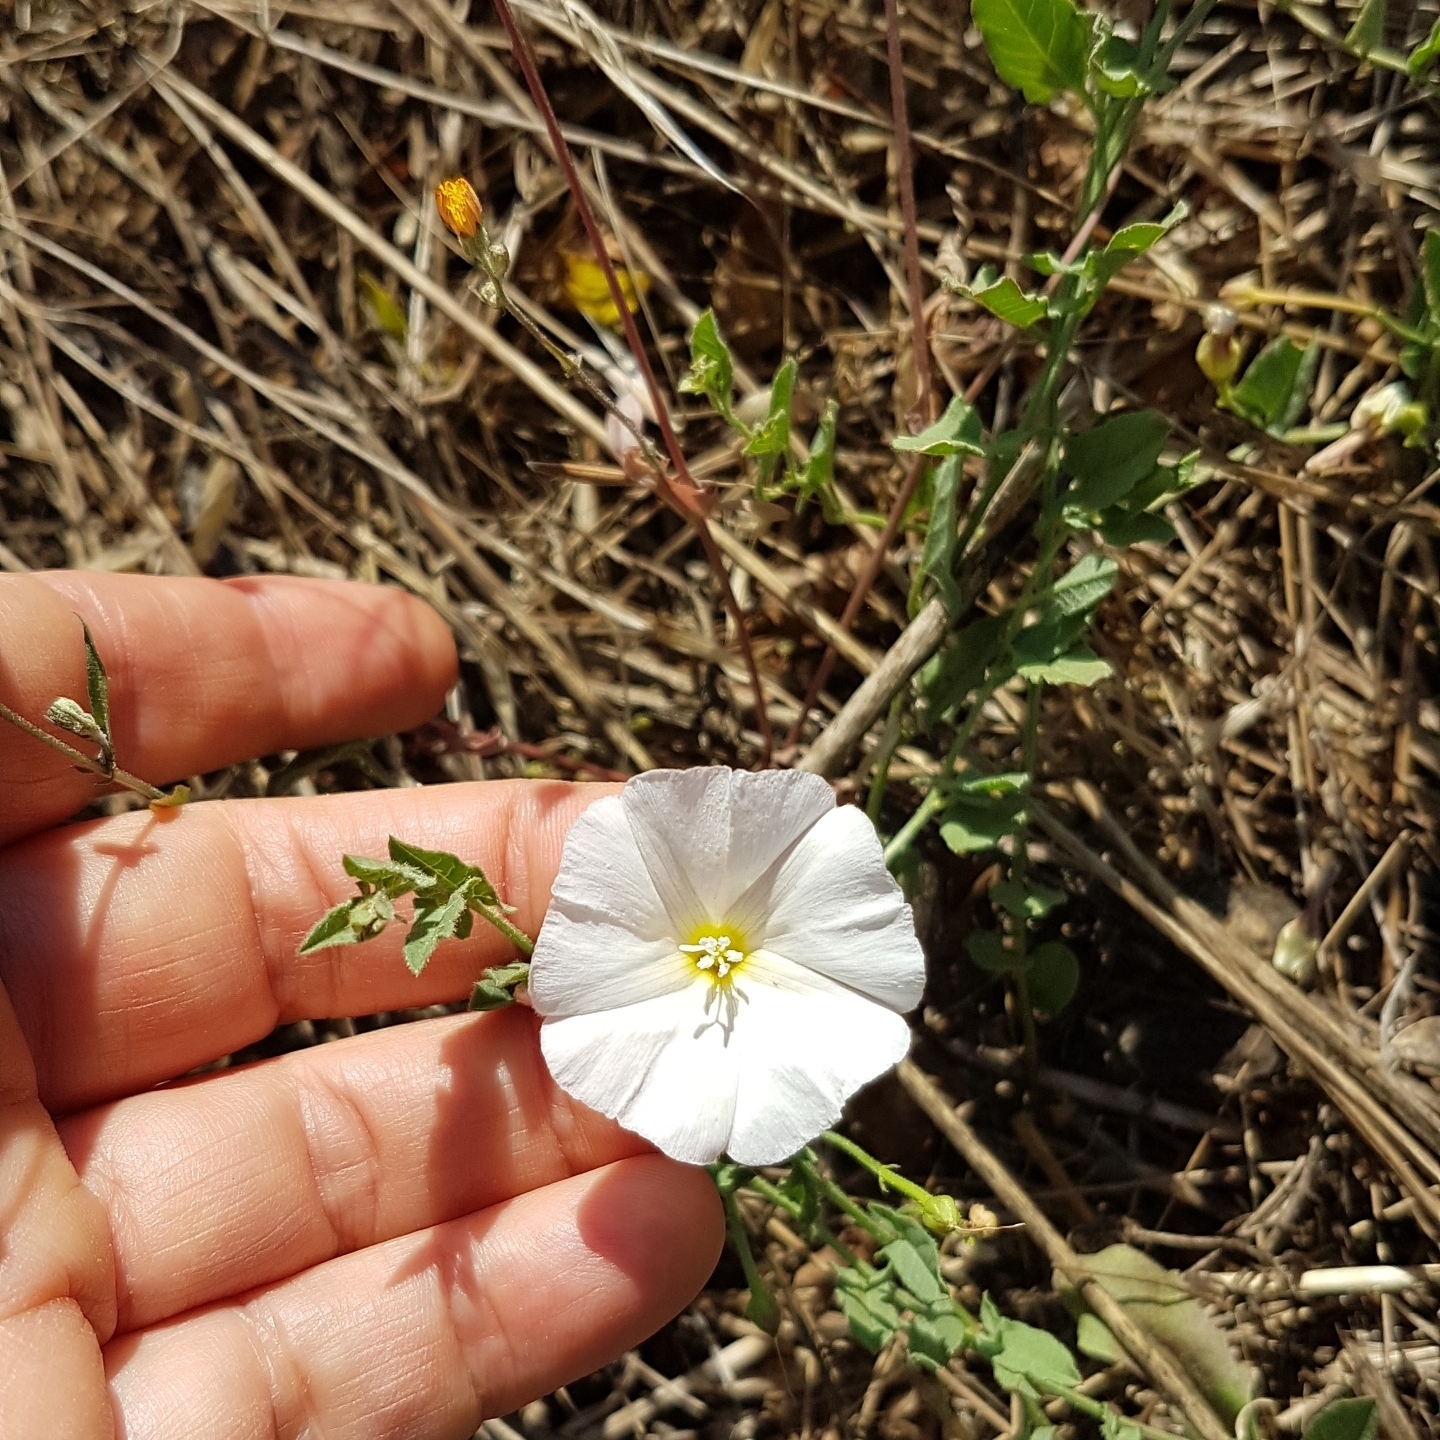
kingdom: Plantae
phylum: Tracheophyta
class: Magnoliopsida
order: Solanales
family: Convolvulaceae
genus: Convolvulus
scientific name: Convolvulus arvensis
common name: Field bindweed
